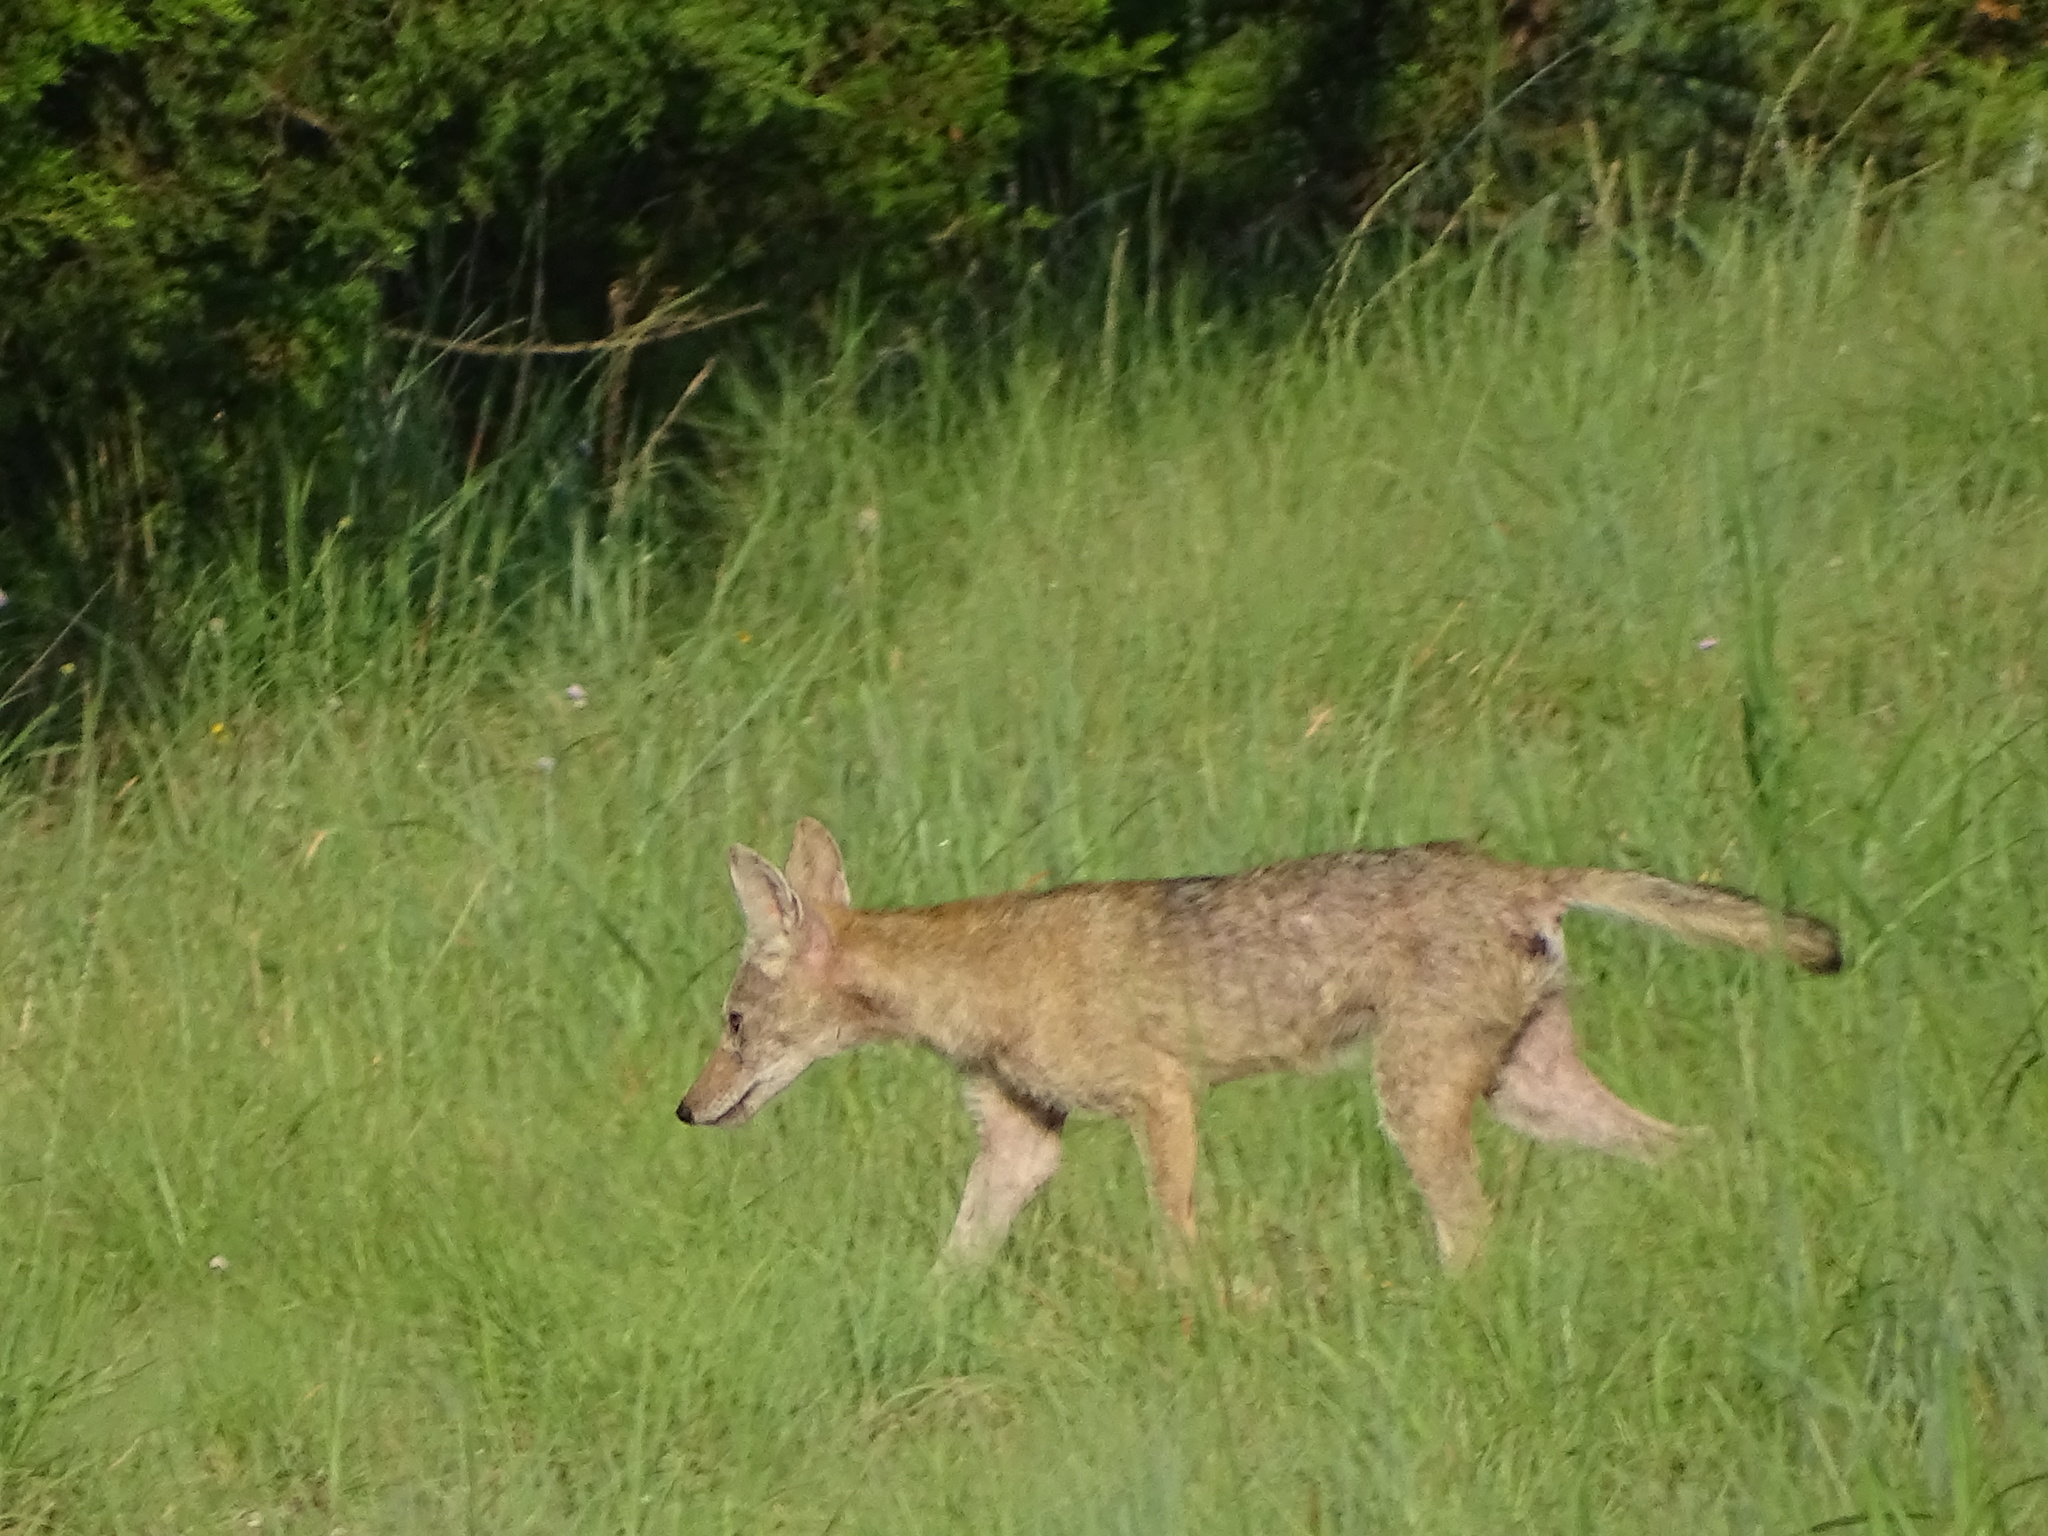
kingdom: Animalia
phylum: Chordata
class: Mammalia
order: Carnivora
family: Canidae
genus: Canis
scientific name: Canis latrans
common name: Coyote
